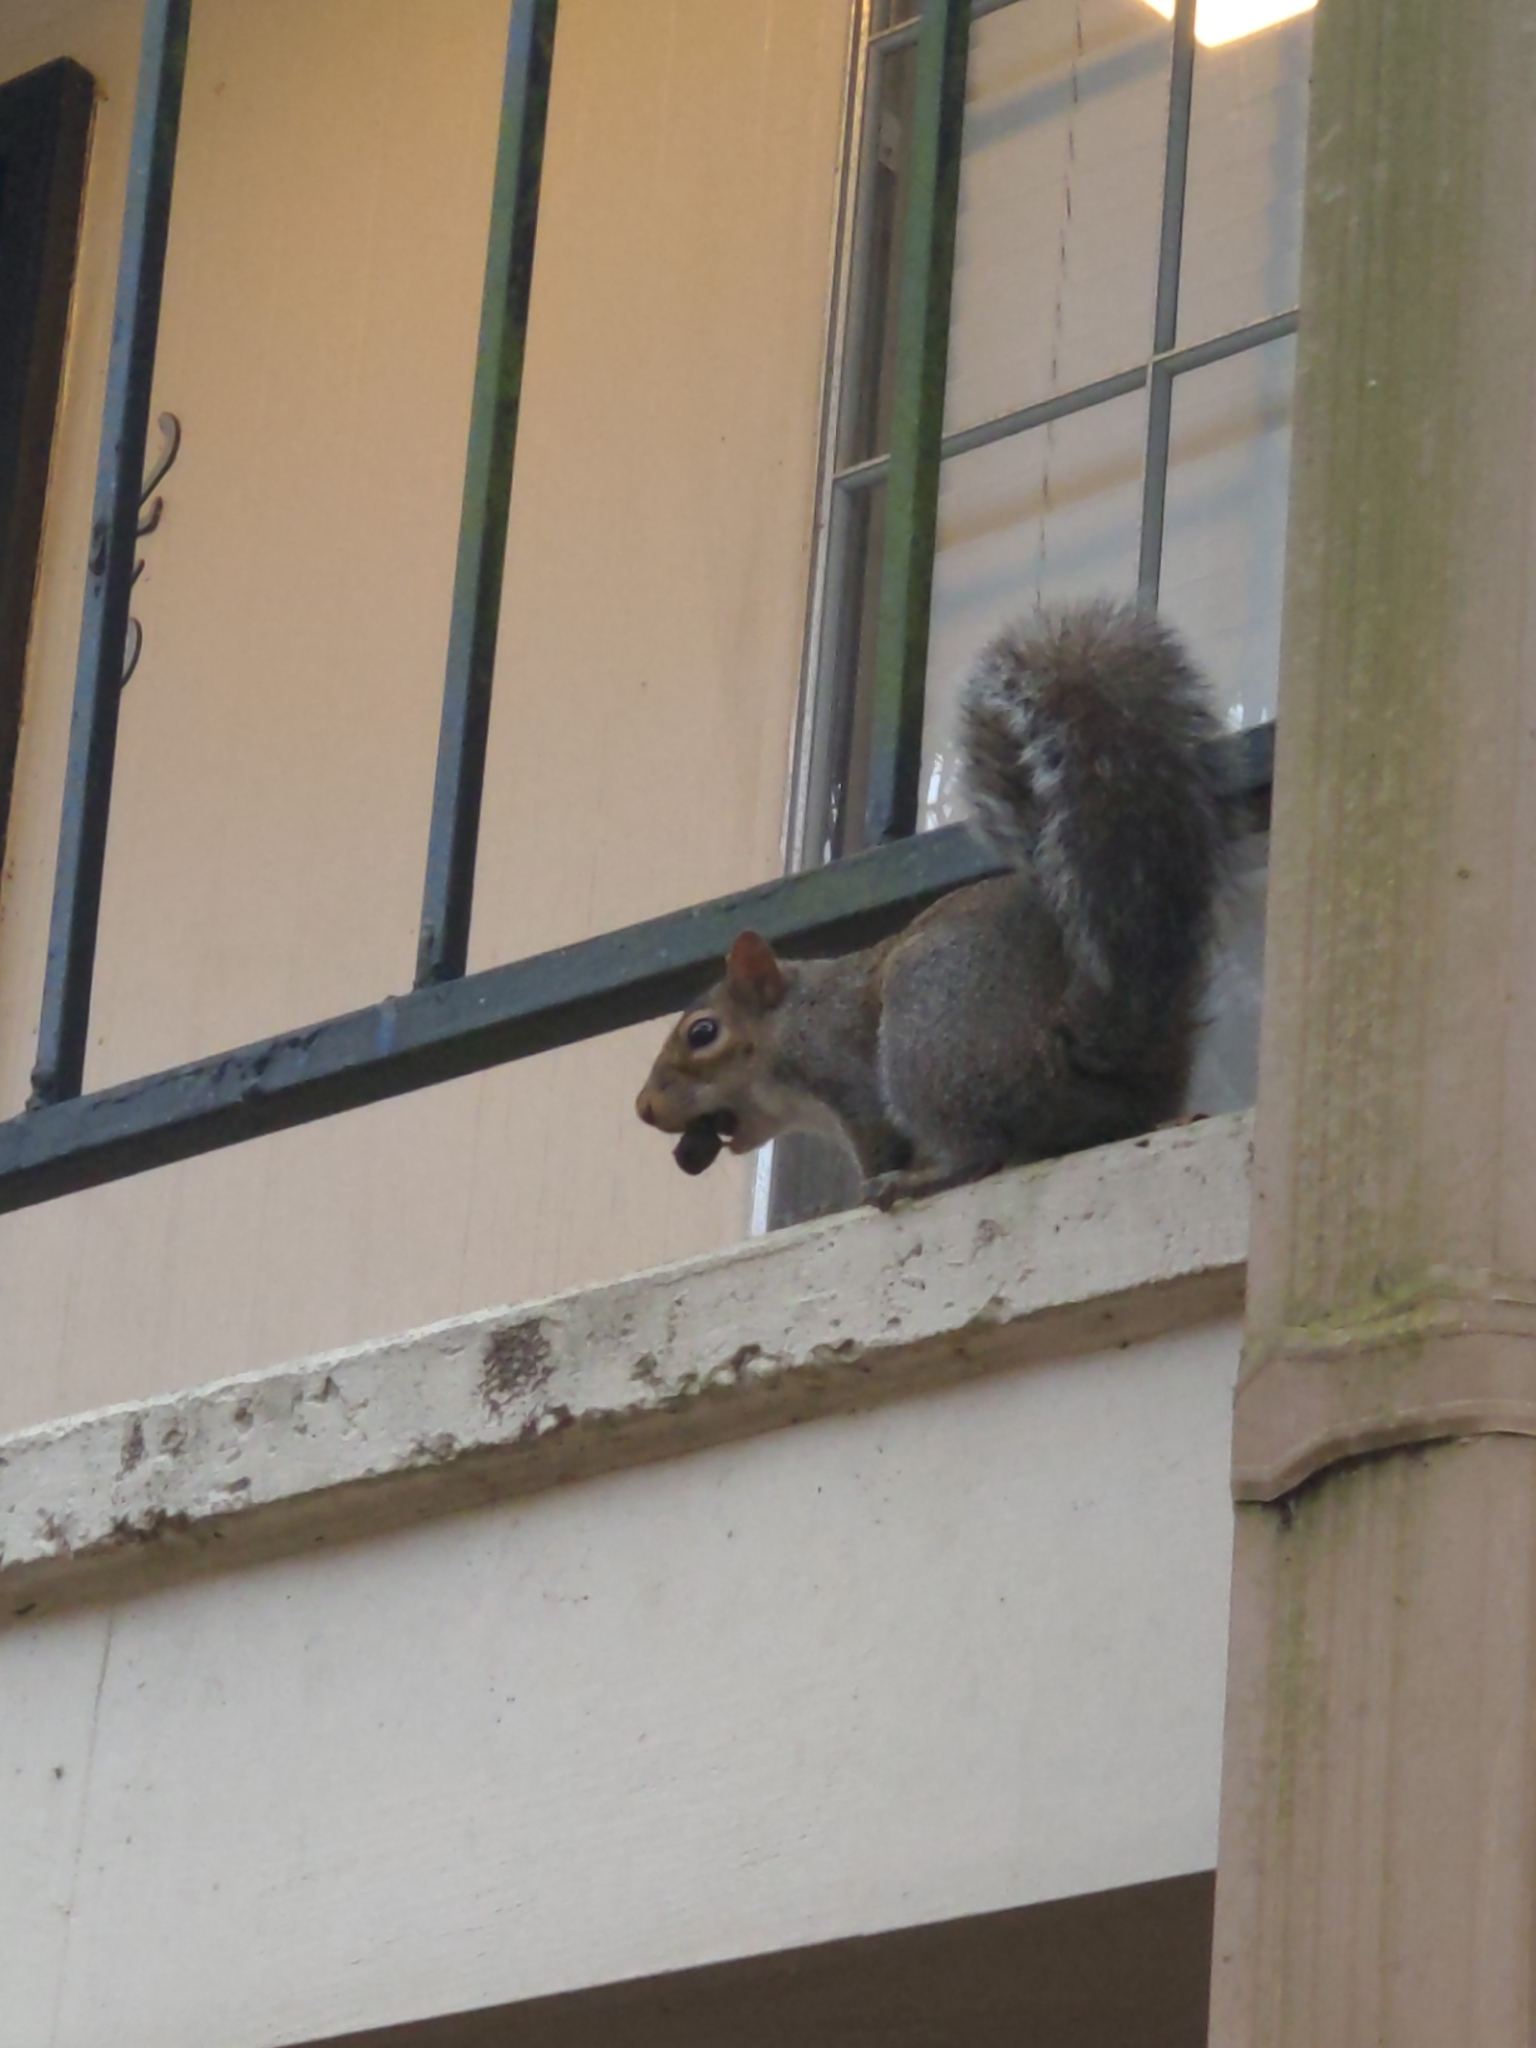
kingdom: Animalia
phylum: Chordata
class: Mammalia
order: Rodentia
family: Sciuridae
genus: Sciurus
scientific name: Sciurus carolinensis
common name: Eastern gray squirrel
